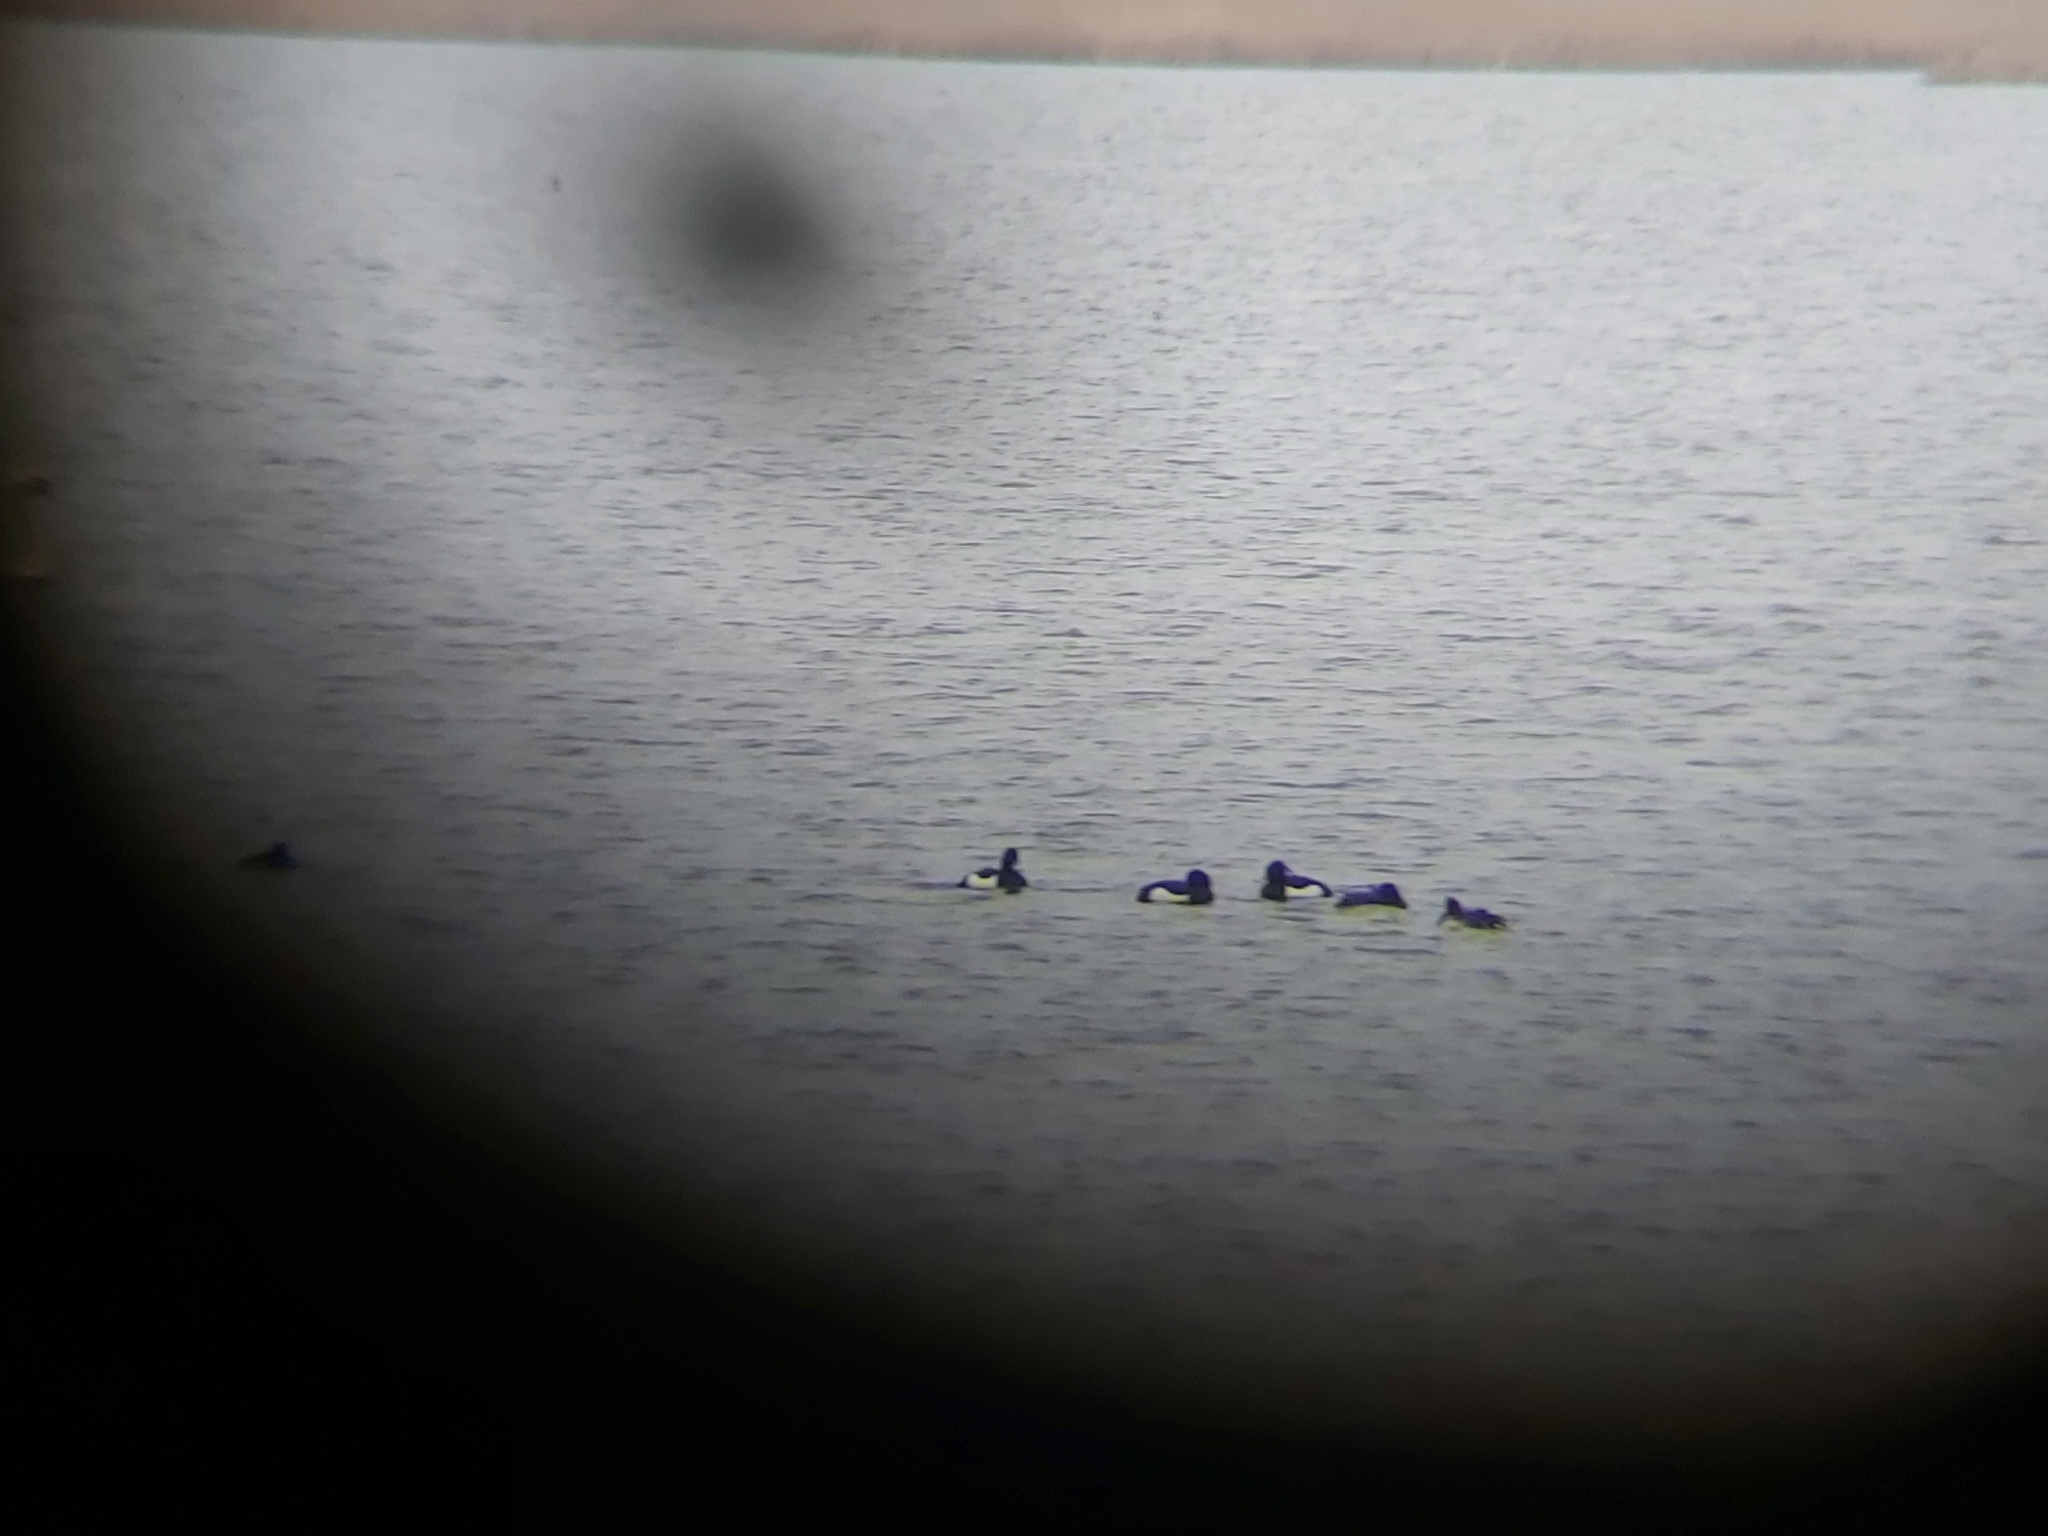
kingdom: Animalia
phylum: Chordata
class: Aves
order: Anseriformes
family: Anatidae
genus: Aythya
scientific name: Aythya fuligula
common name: Tufted duck
